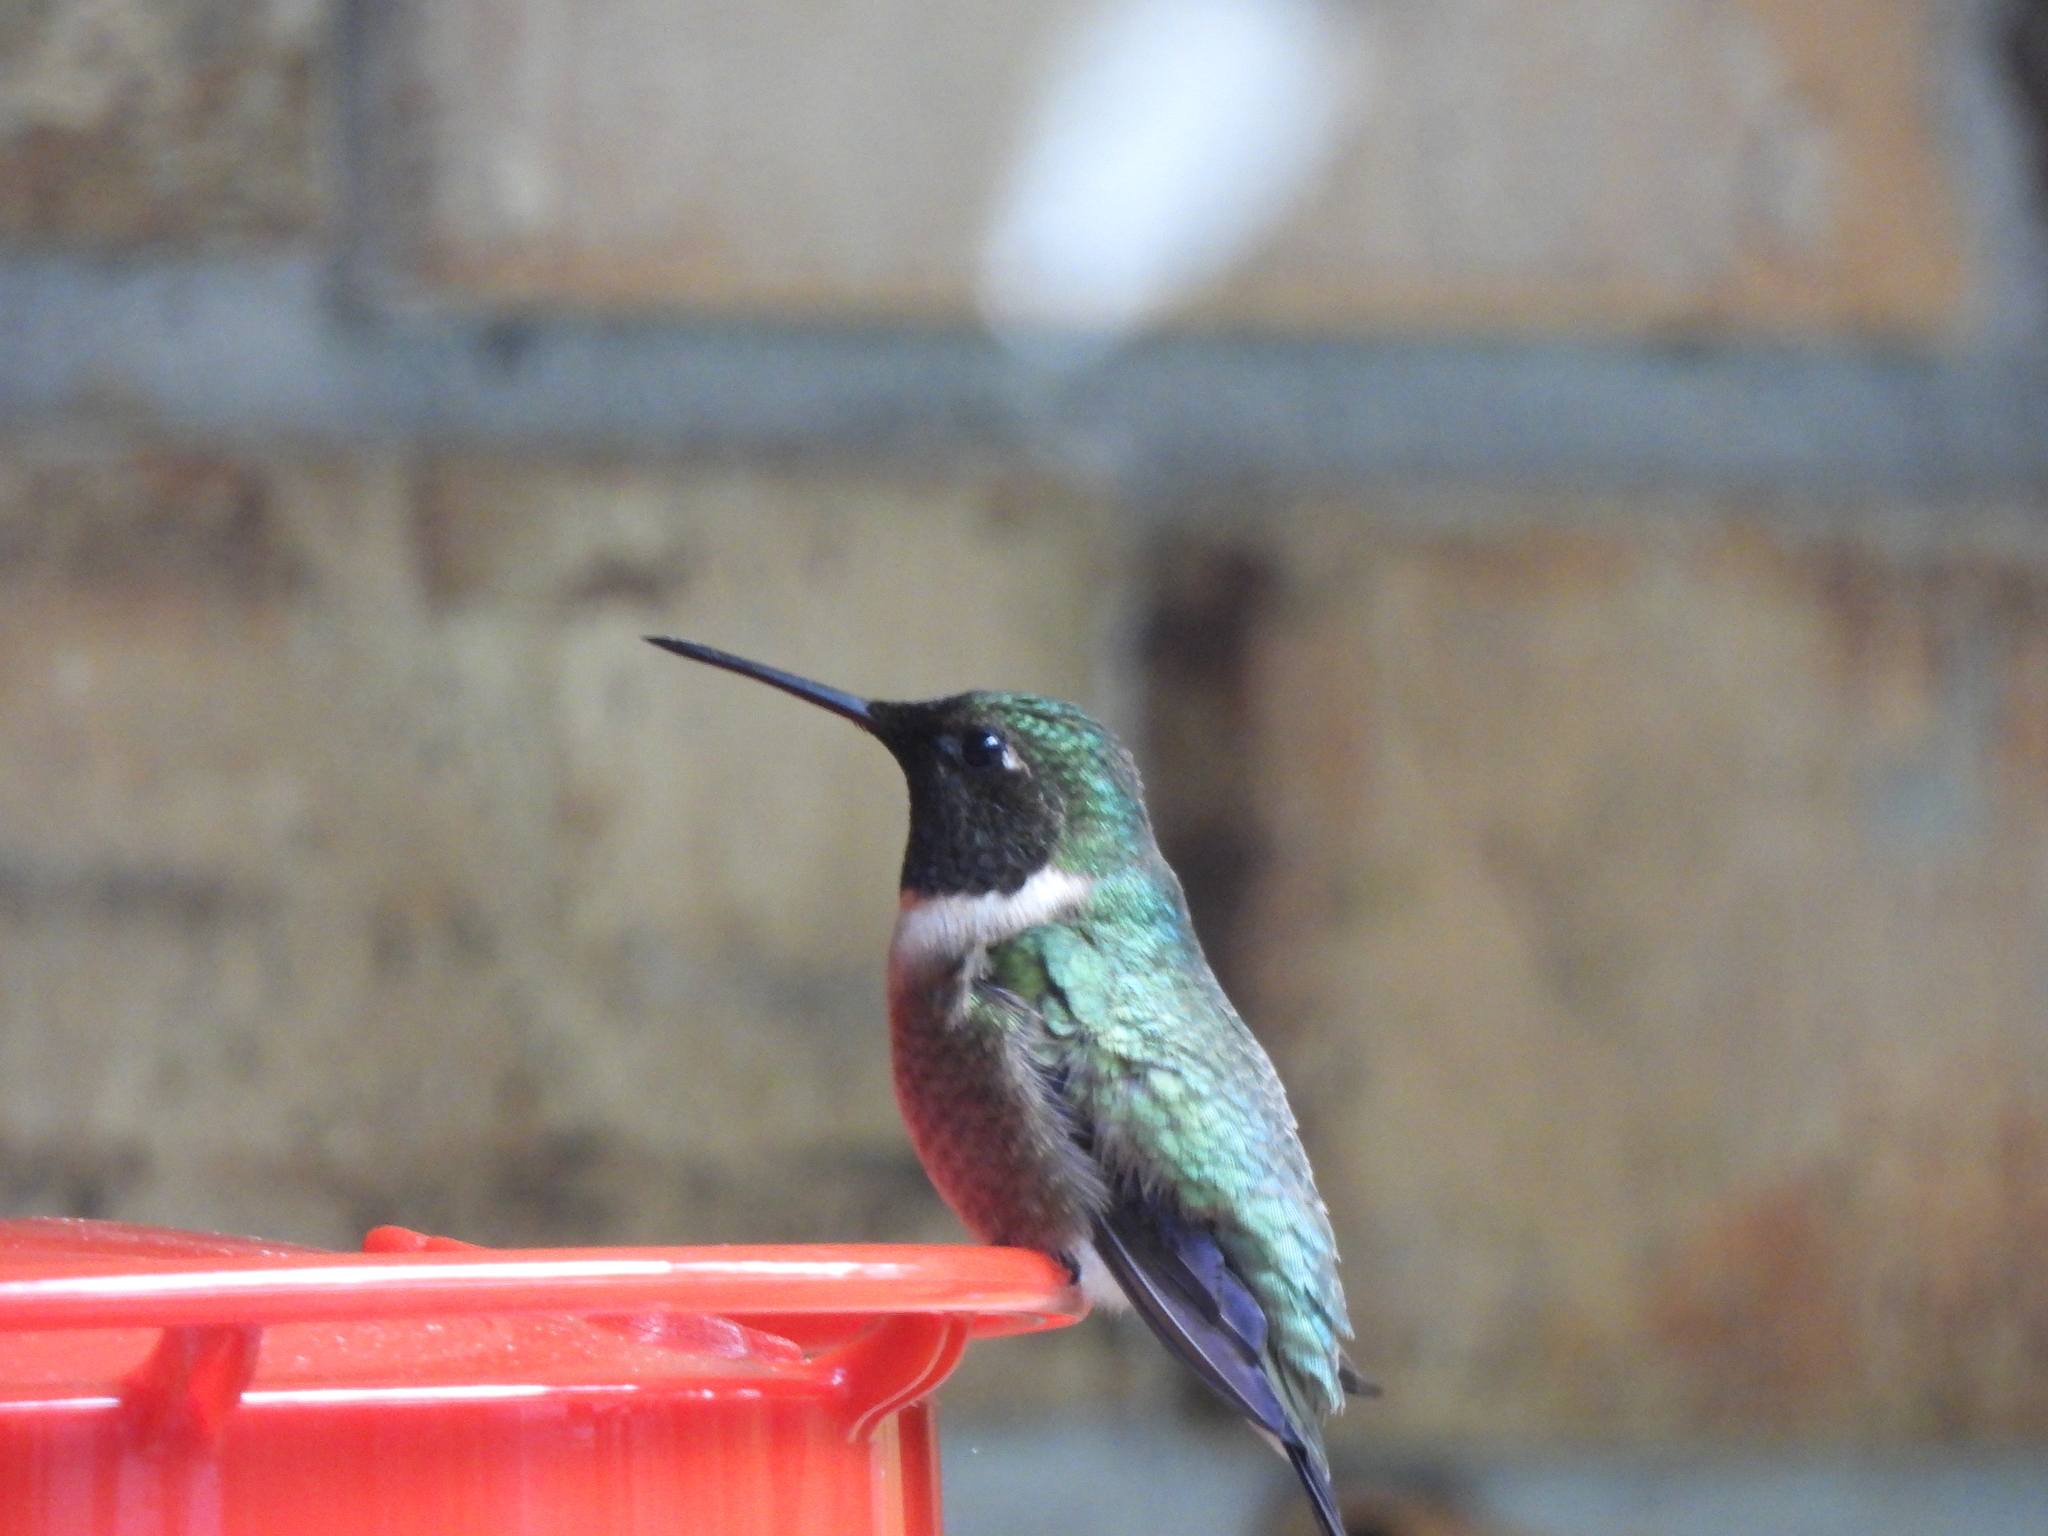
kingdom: Animalia
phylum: Chordata
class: Aves
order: Apodiformes
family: Trochilidae
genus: Archilochus
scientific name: Archilochus colubris
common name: Ruby-throated hummingbird
